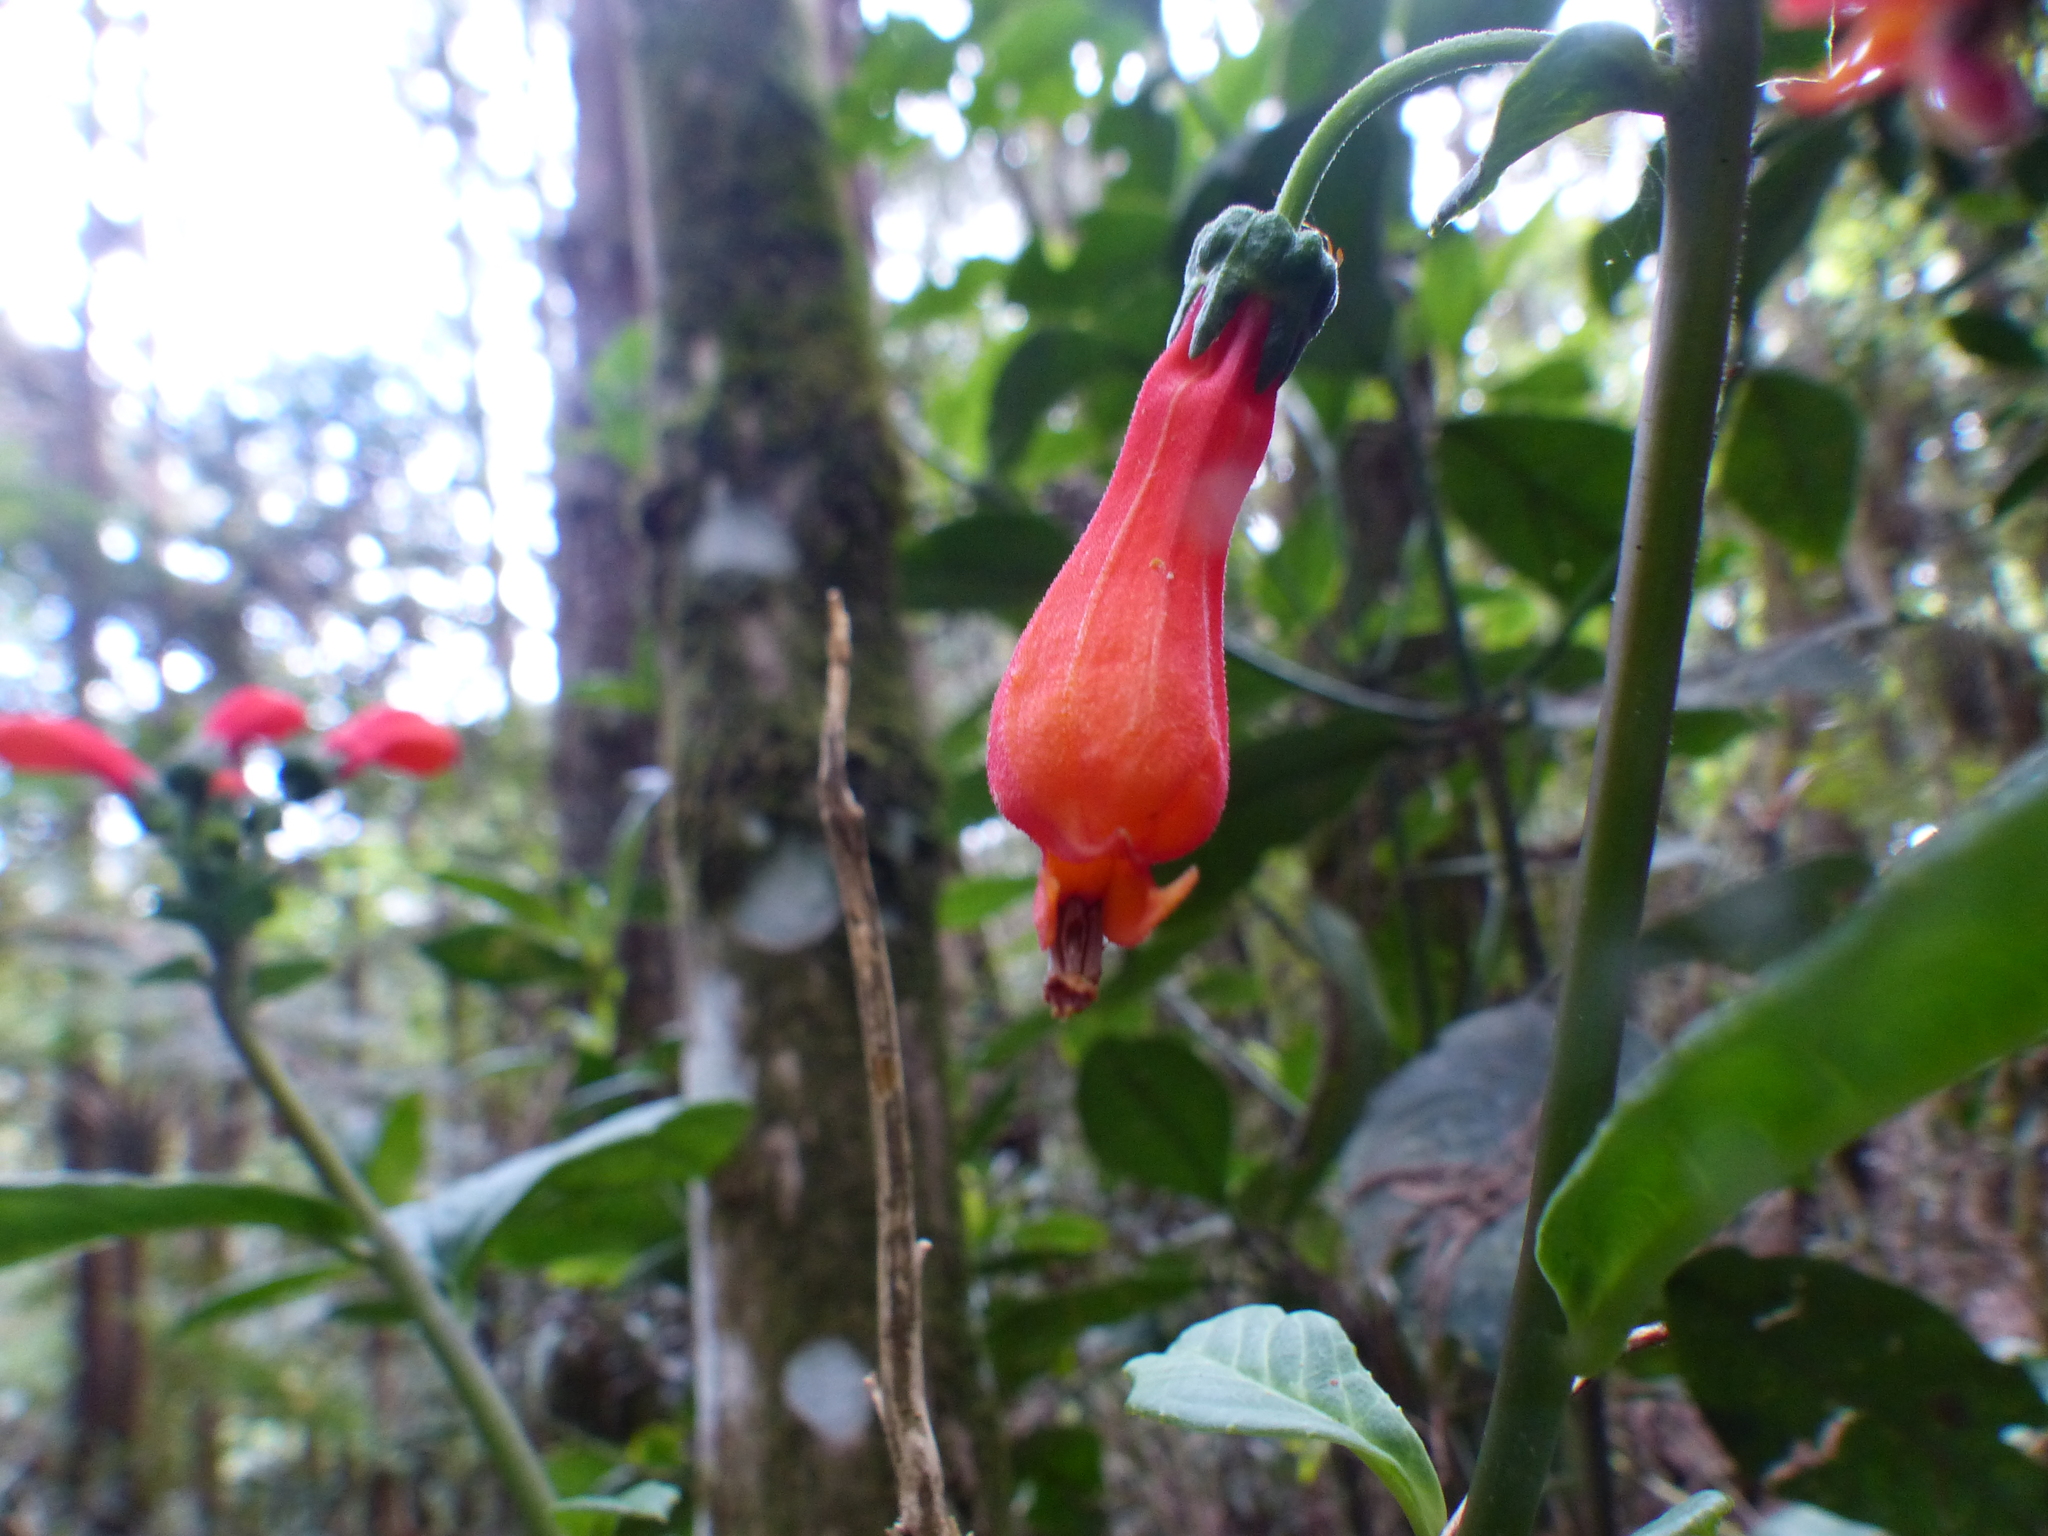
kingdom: Plantae
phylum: Tracheophyta
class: Magnoliopsida
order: Asterales
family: Campanulaceae
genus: Centropogon
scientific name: Centropogon vaughianus
